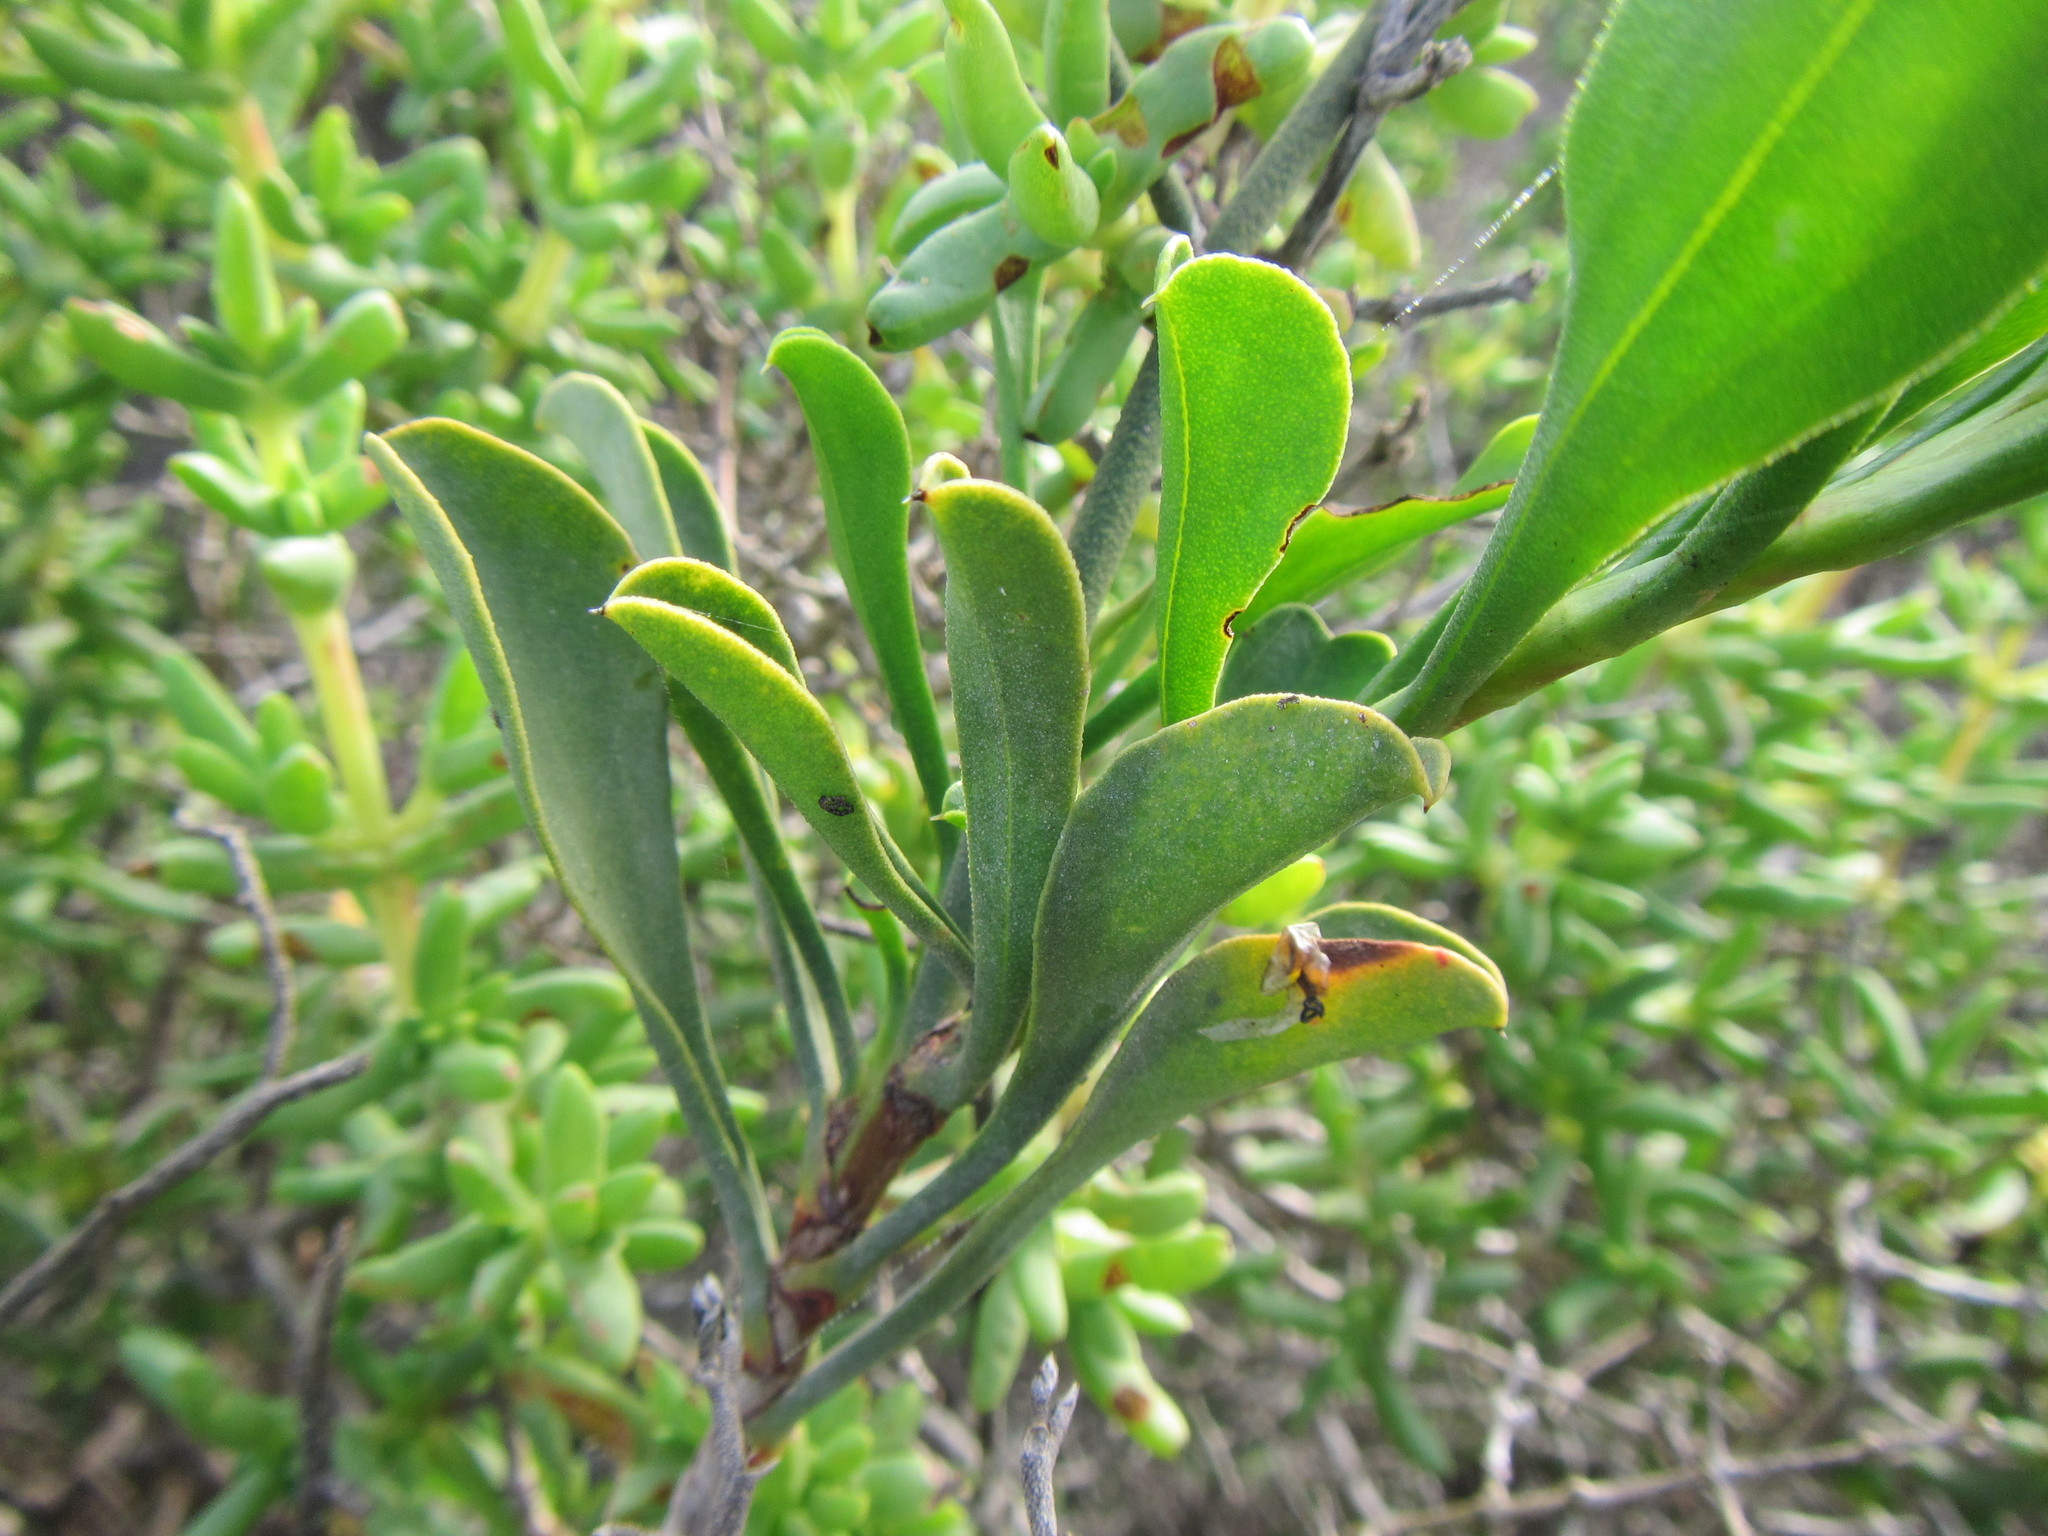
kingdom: Plantae
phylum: Tracheophyta
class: Magnoliopsida
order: Caryophyllales
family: Plumbaginaceae
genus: Limonium
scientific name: Limonium peregrinum
